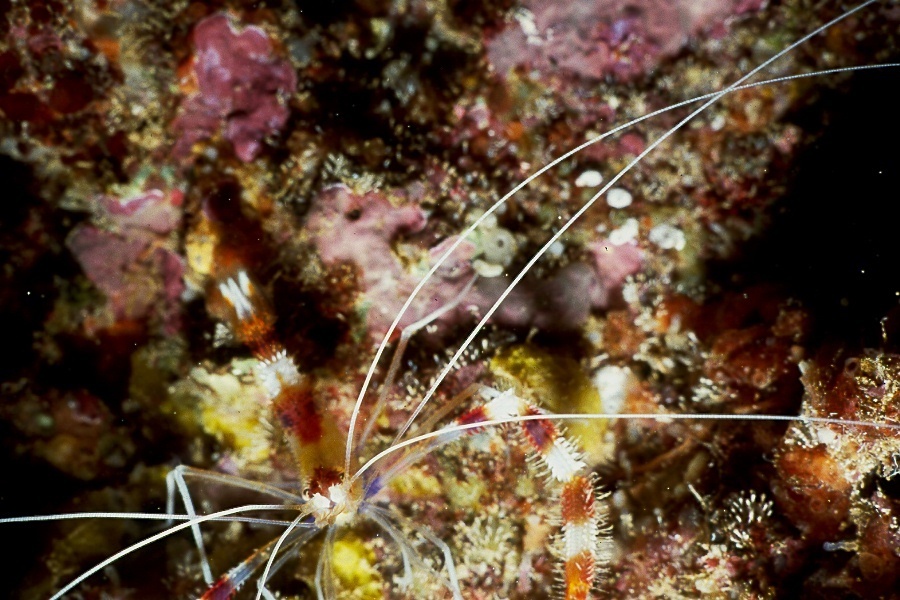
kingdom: Animalia
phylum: Arthropoda
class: Malacostraca
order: Decapoda
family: Stenopodidae
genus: Stenopus
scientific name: Stenopus hispidus
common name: Banded coral shrimp
